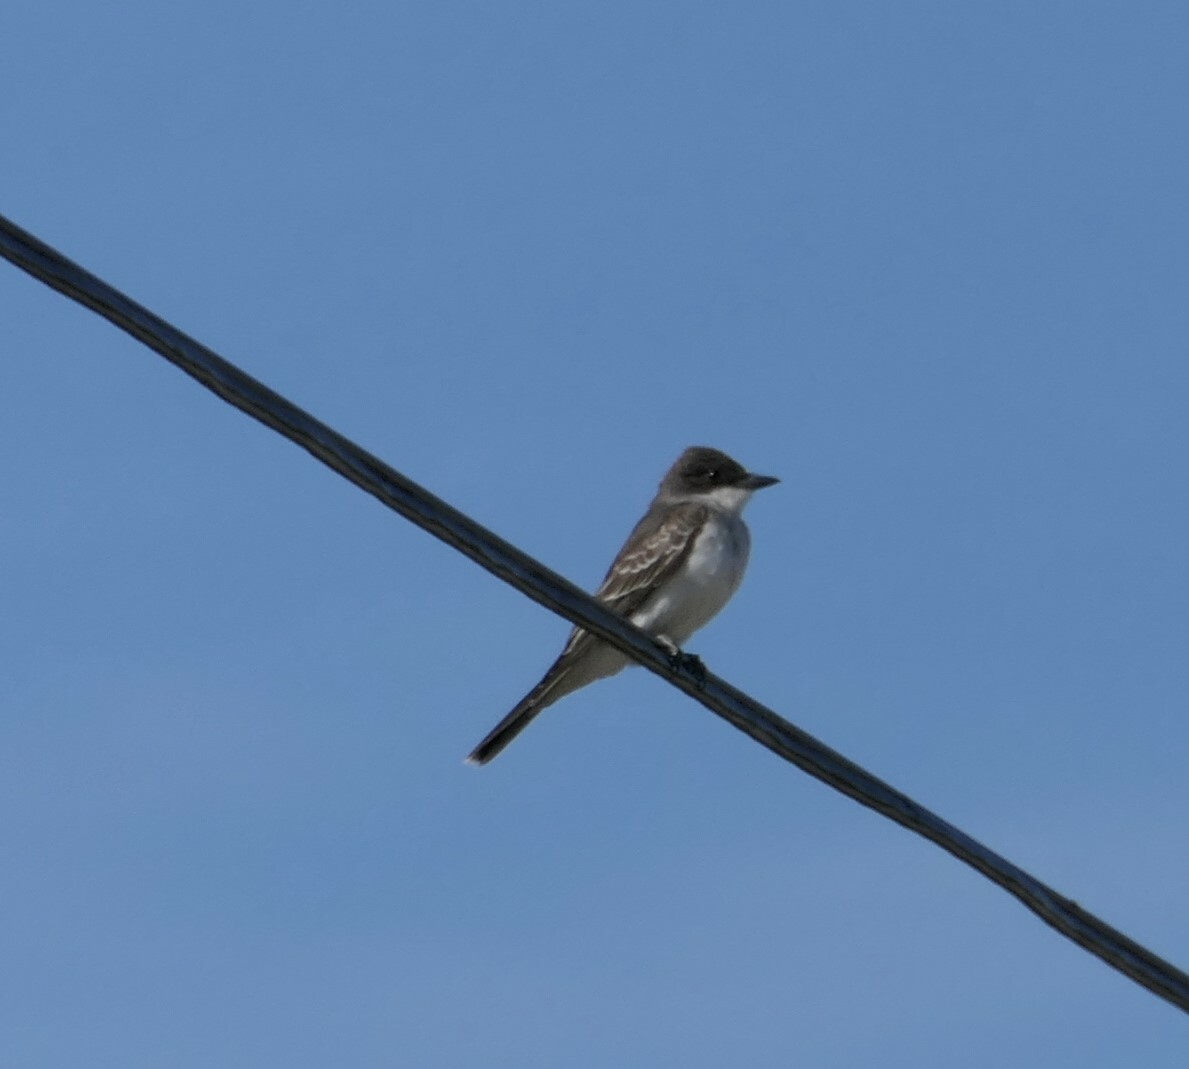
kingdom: Animalia
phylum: Chordata
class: Aves
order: Passeriformes
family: Tyrannidae
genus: Tyrannus
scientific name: Tyrannus tyrannus
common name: Eastern kingbird
